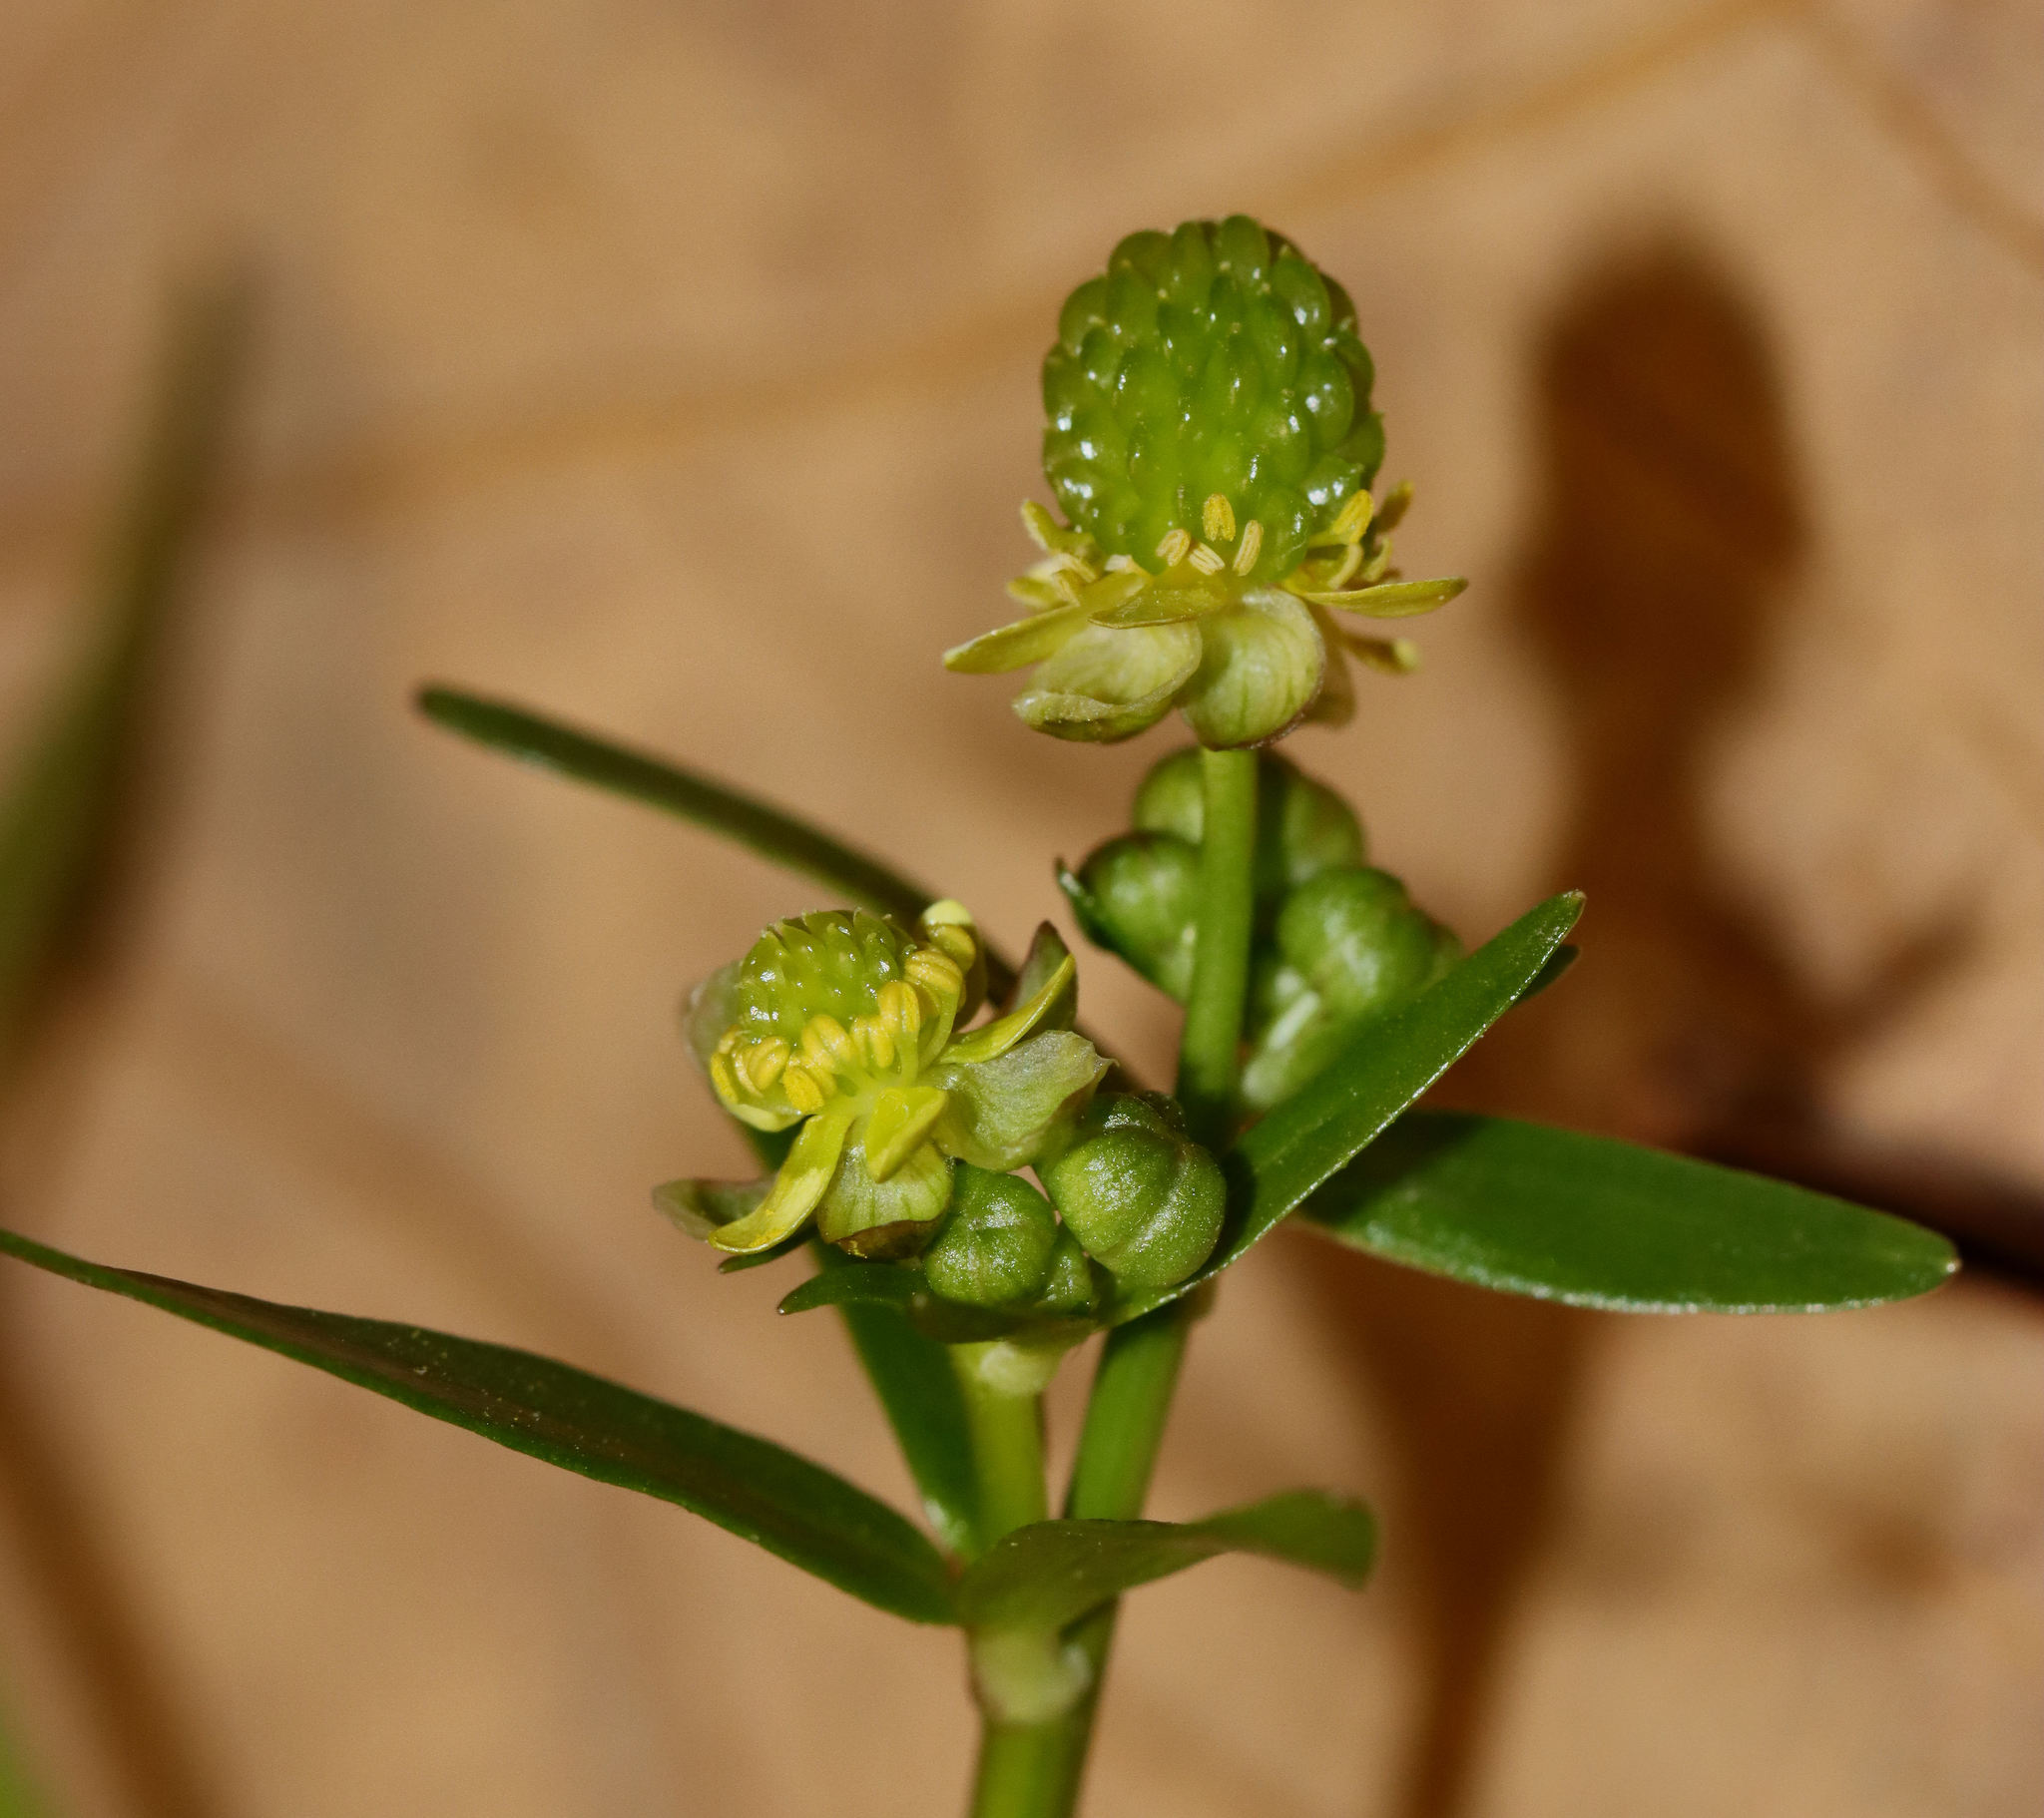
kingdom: Plantae
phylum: Tracheophyta
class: Magnoliopsida
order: Ranunculales
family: Ranunculaceae
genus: Ranunculus
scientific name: Ranunculus sceleratus
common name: Celery-leaved buttercup
